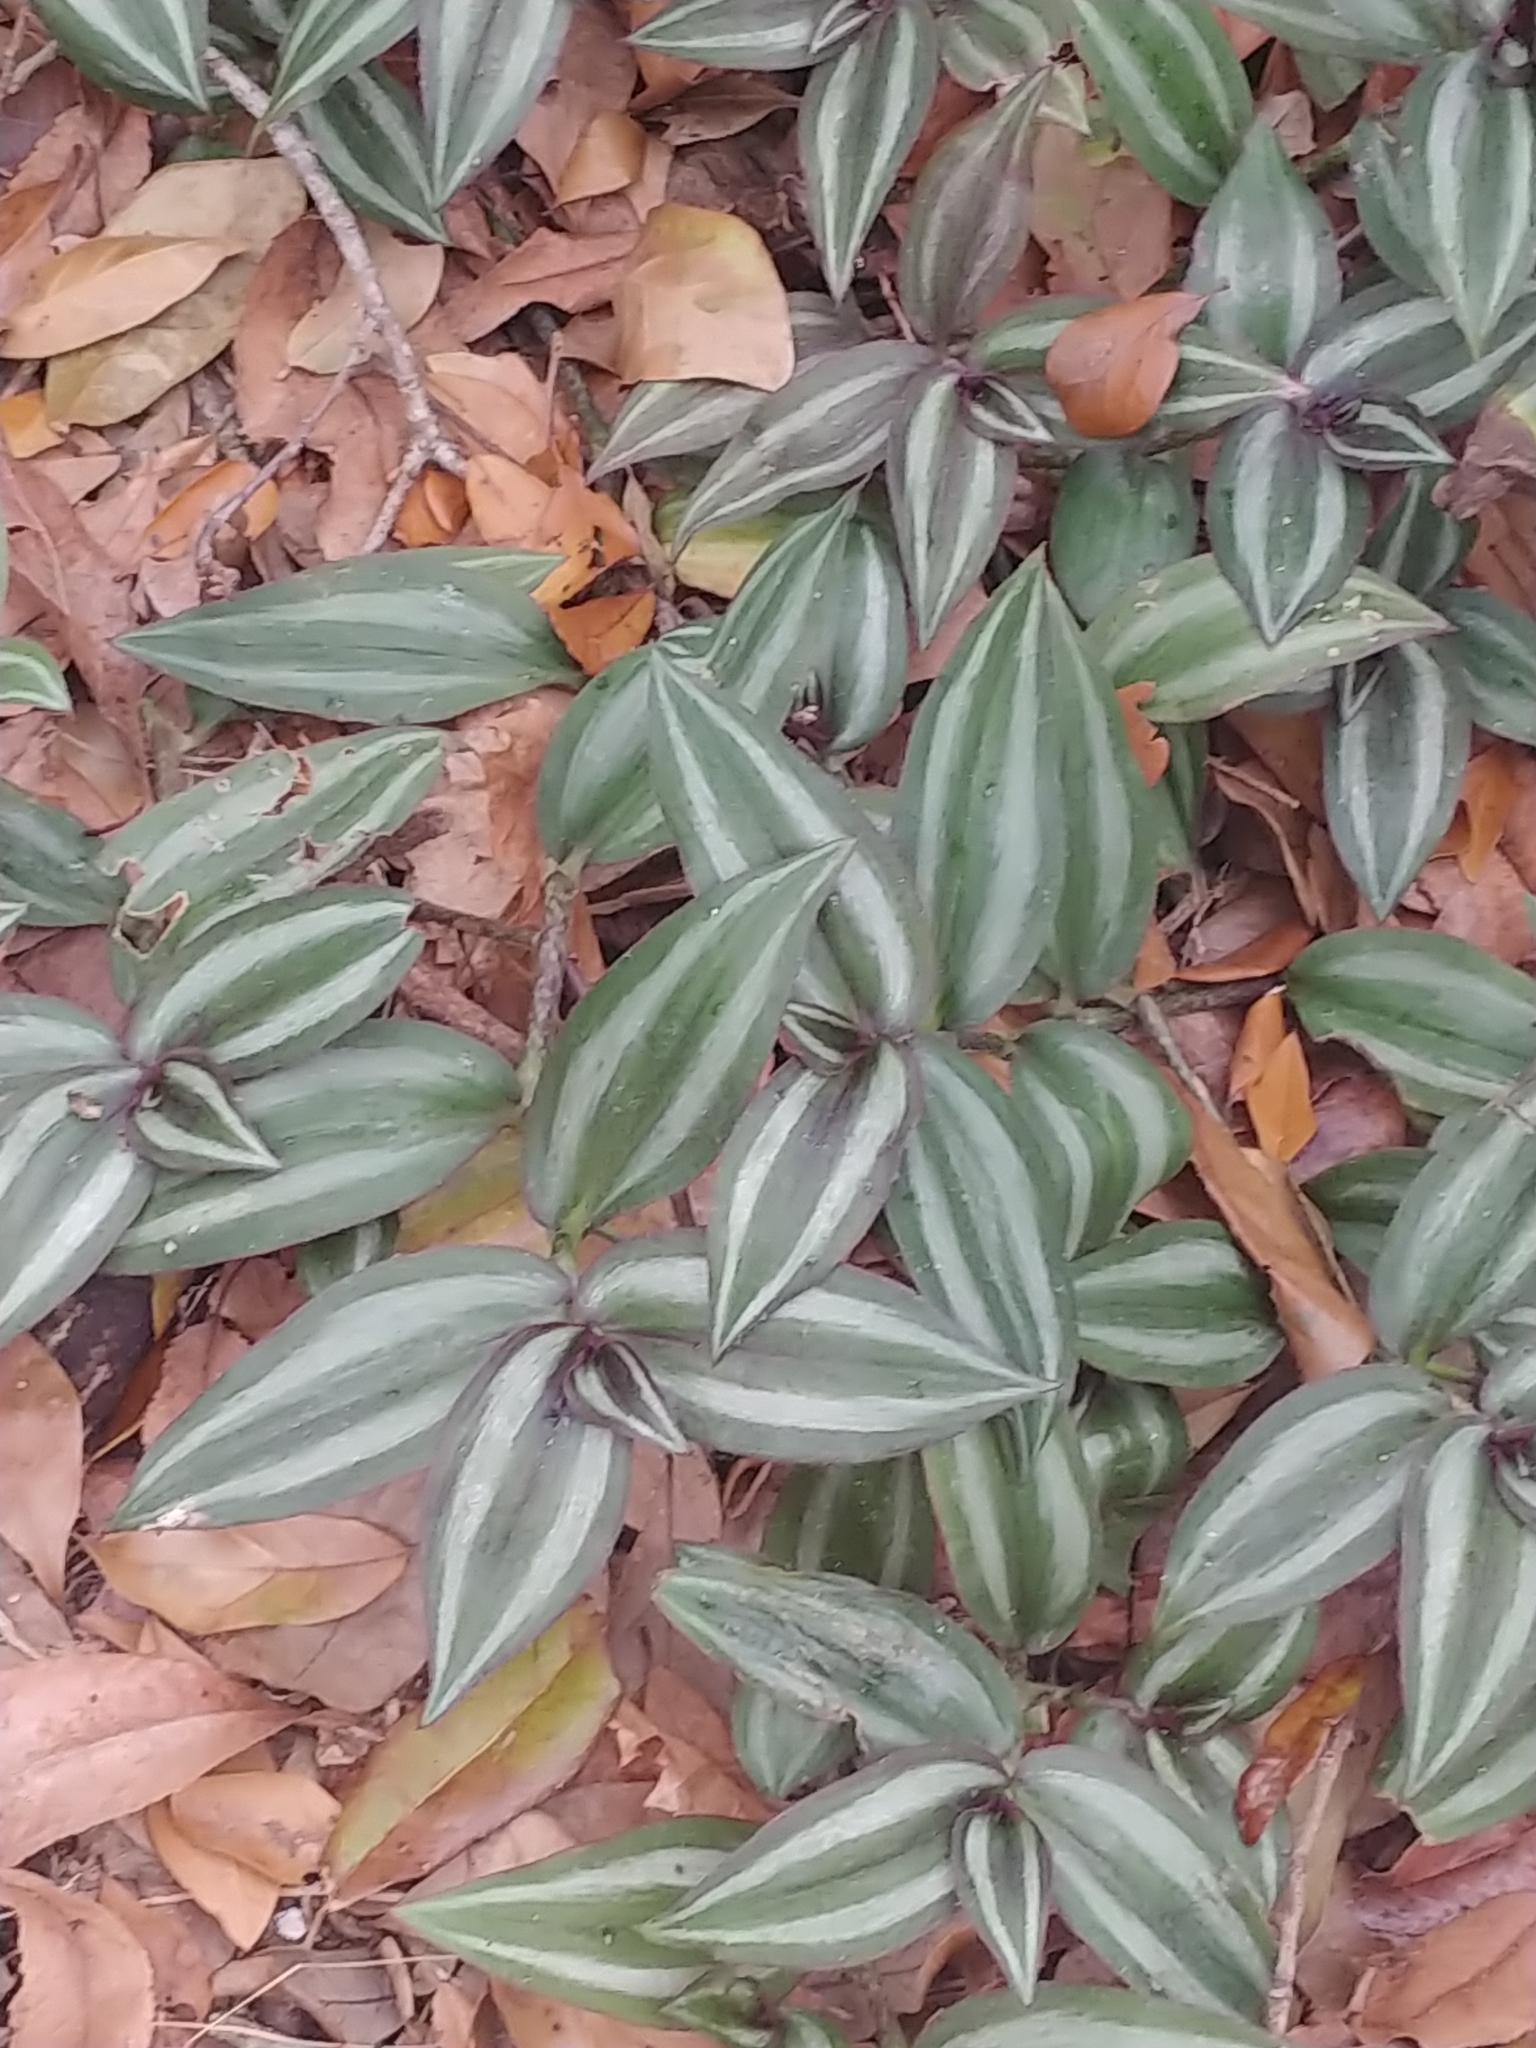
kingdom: Plantae
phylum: Tracheophyta
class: Liliopsida
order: Commelinales
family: Commelinaceae
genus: Tradescantia
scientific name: Tradescantia zebrina
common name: Inchplant
